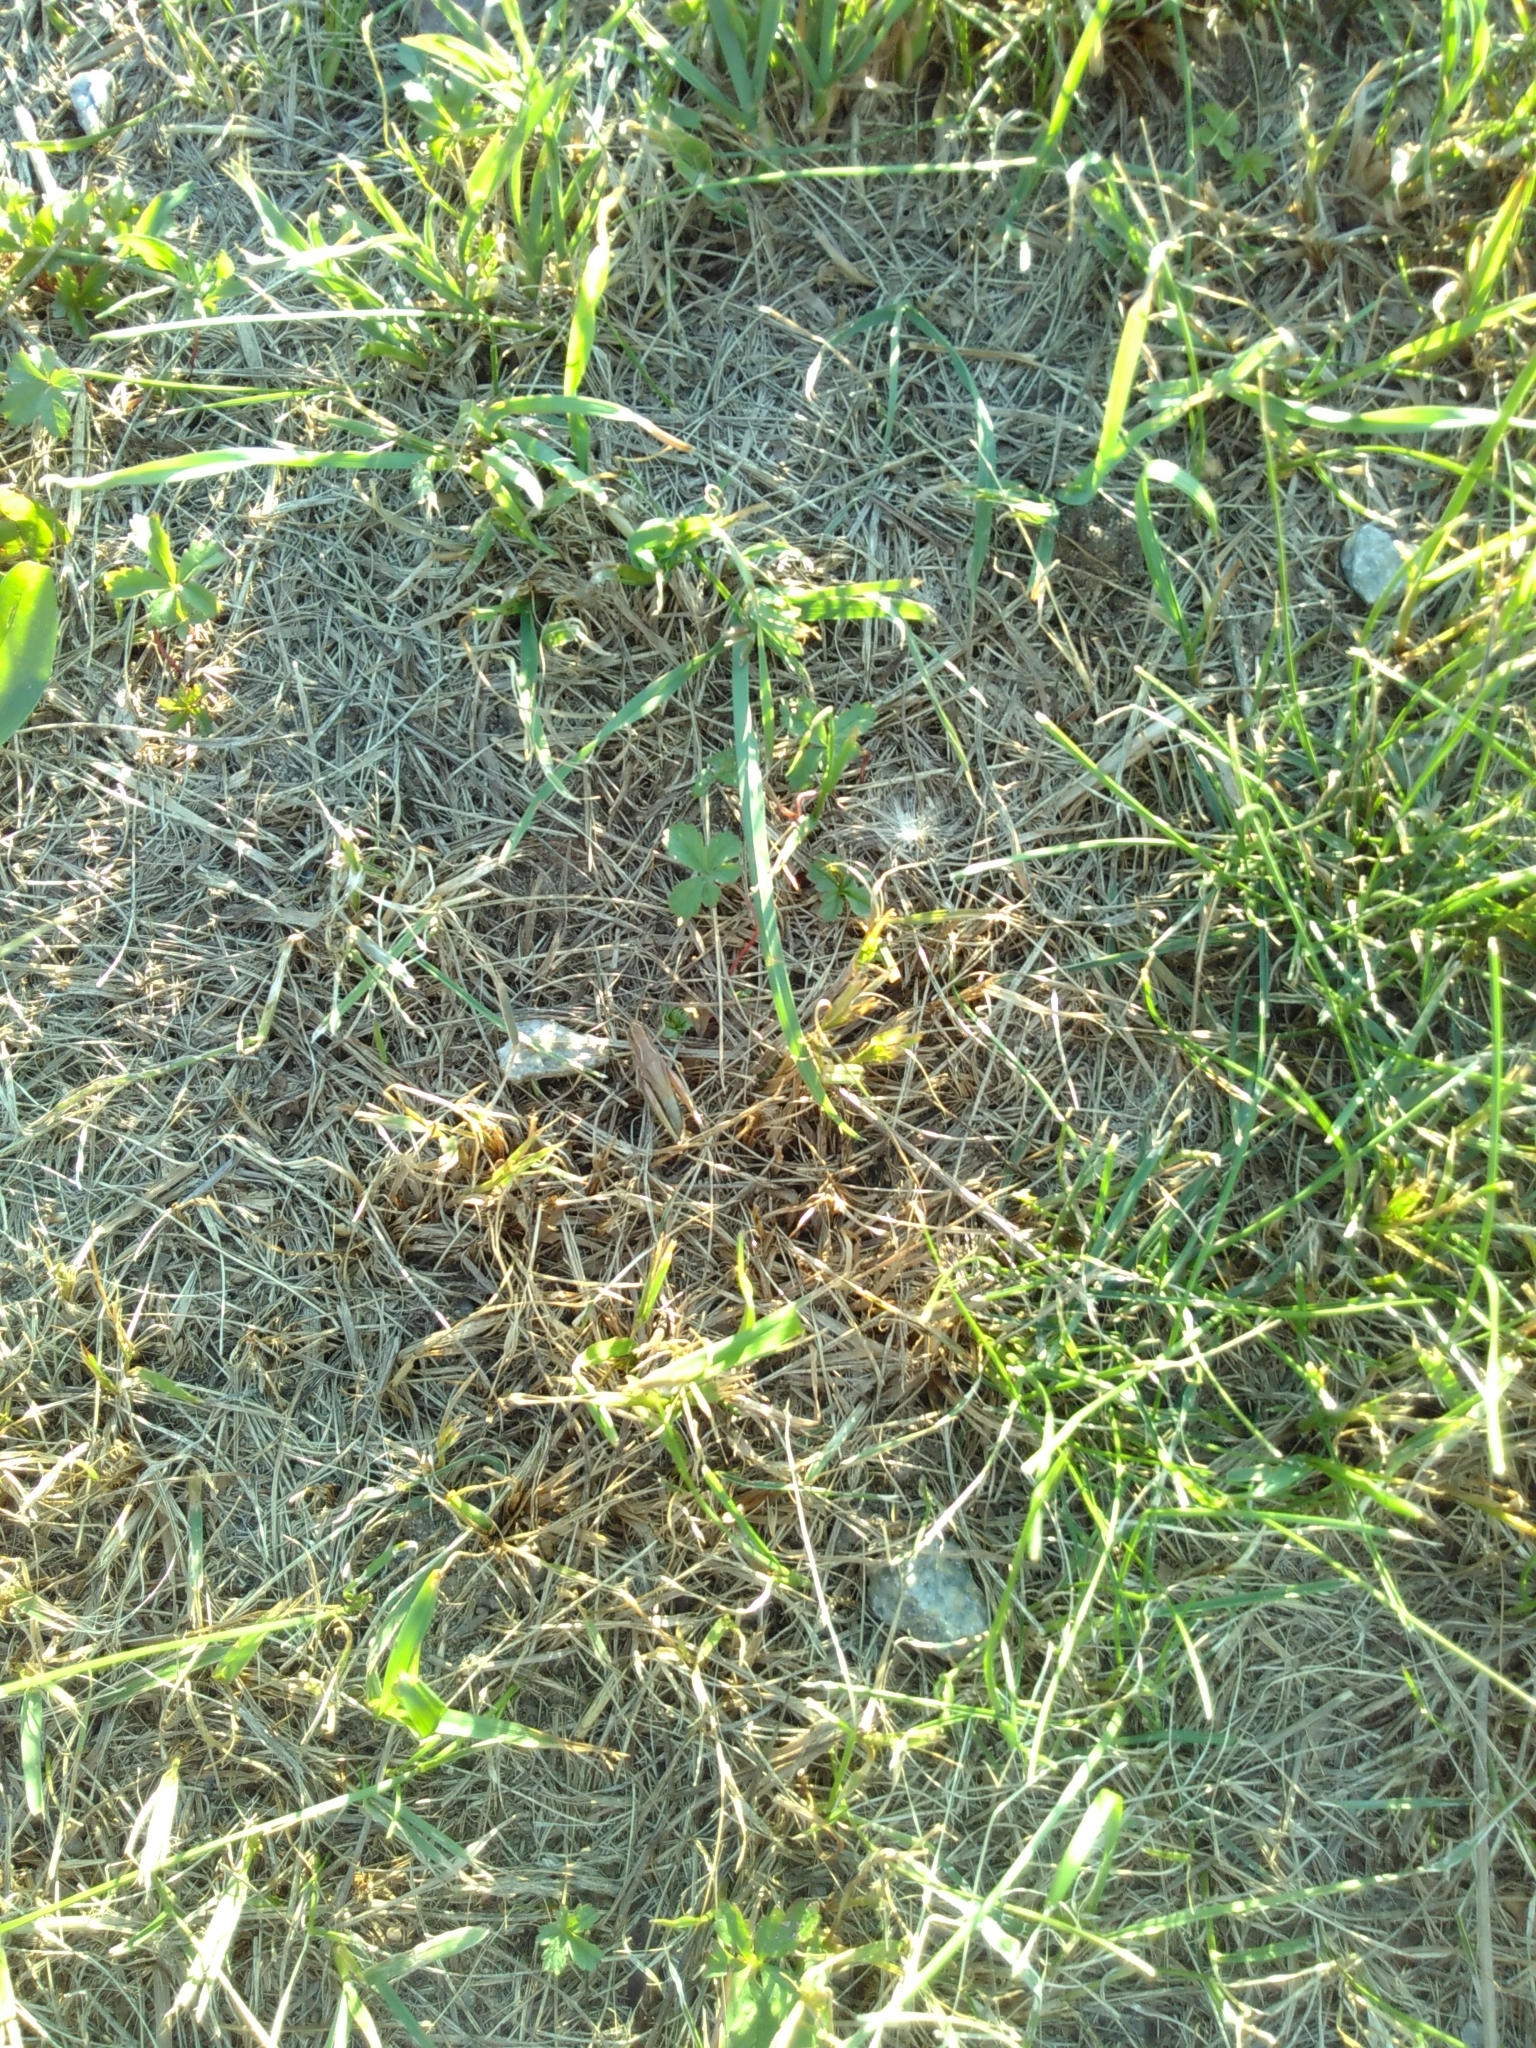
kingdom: Animalia
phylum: Arthropoda
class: Insecta
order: Orthoptera
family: Acrididae
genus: Pseudochorthippus
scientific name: Pseudochorthippus parallelus
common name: Meadow grasshopper
